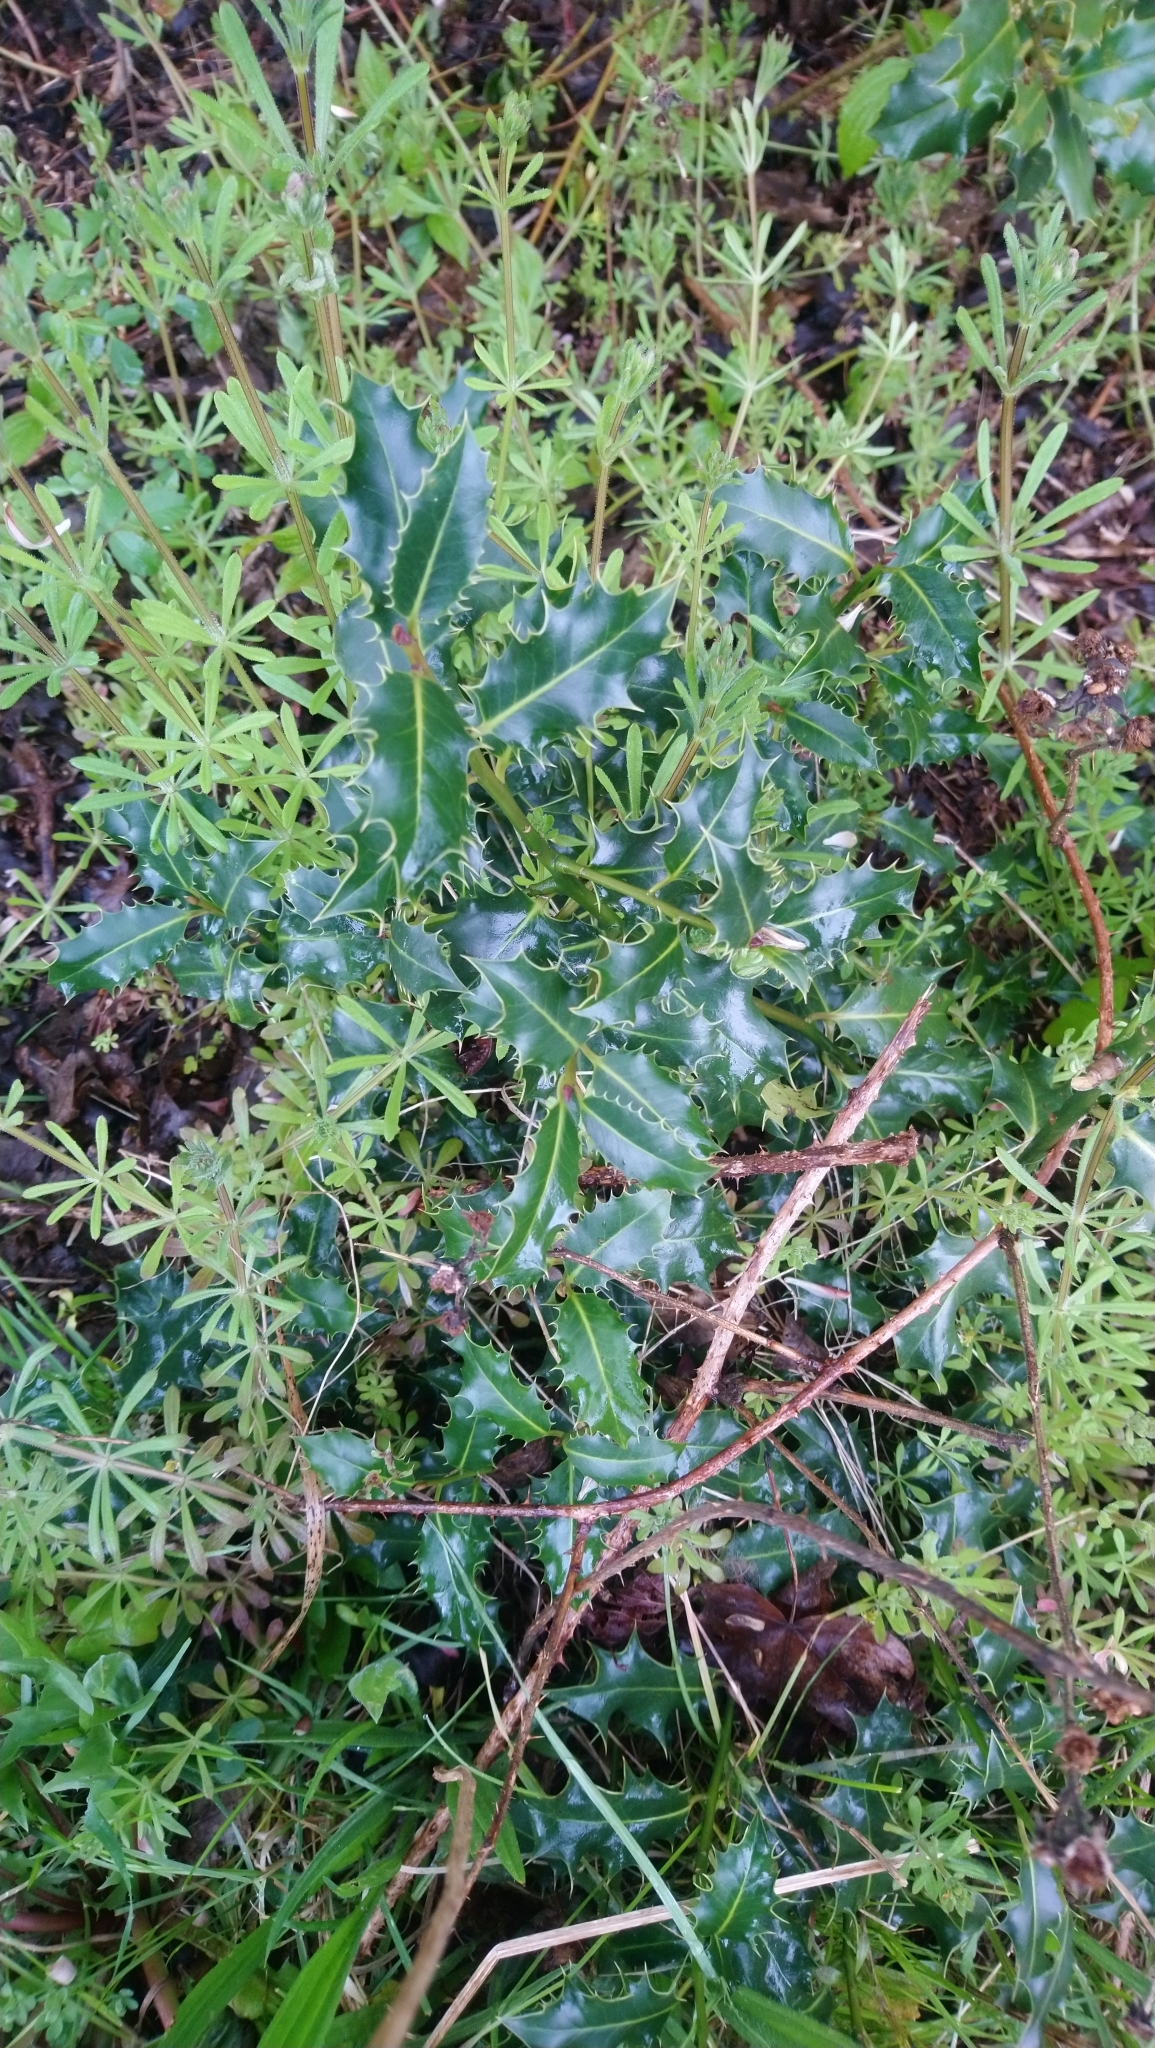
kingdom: Plantae
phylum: Tracheophyta
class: Magnoliopsida
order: Aquifoliales
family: Aquifoliaceae
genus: Ilex
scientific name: Ilex aquifolium
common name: English holly
